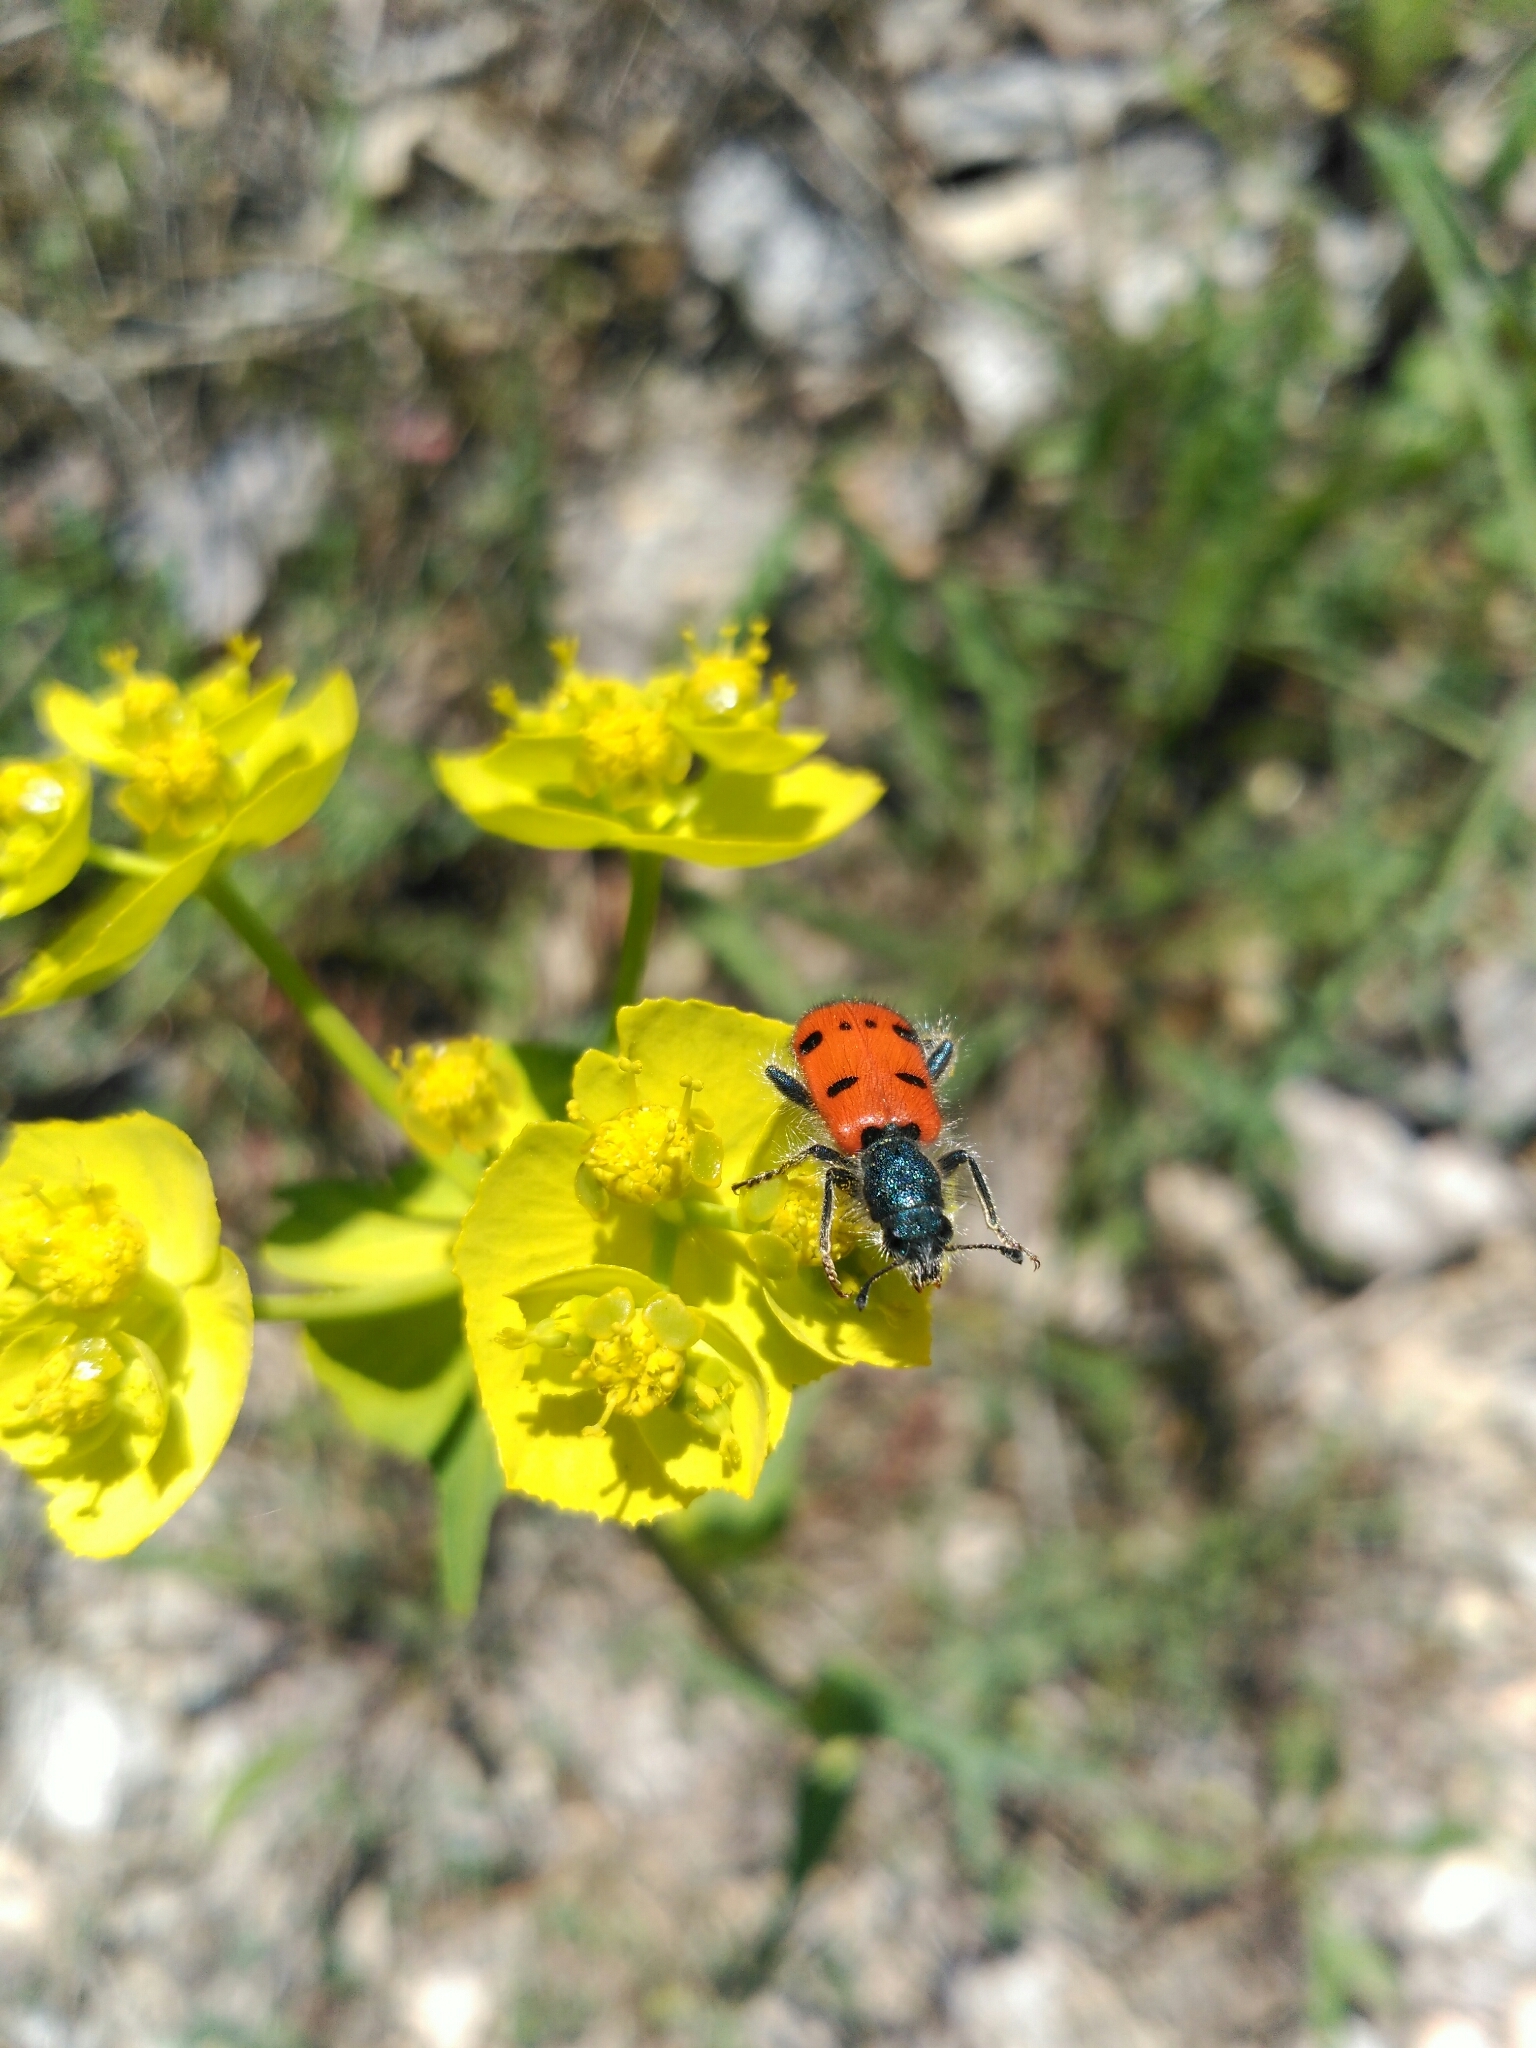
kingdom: Animalia
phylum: Arthropoda
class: Insecta
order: Coleoptera
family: Cleridae
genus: Trichodes
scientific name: Trichodes octopunctatus
